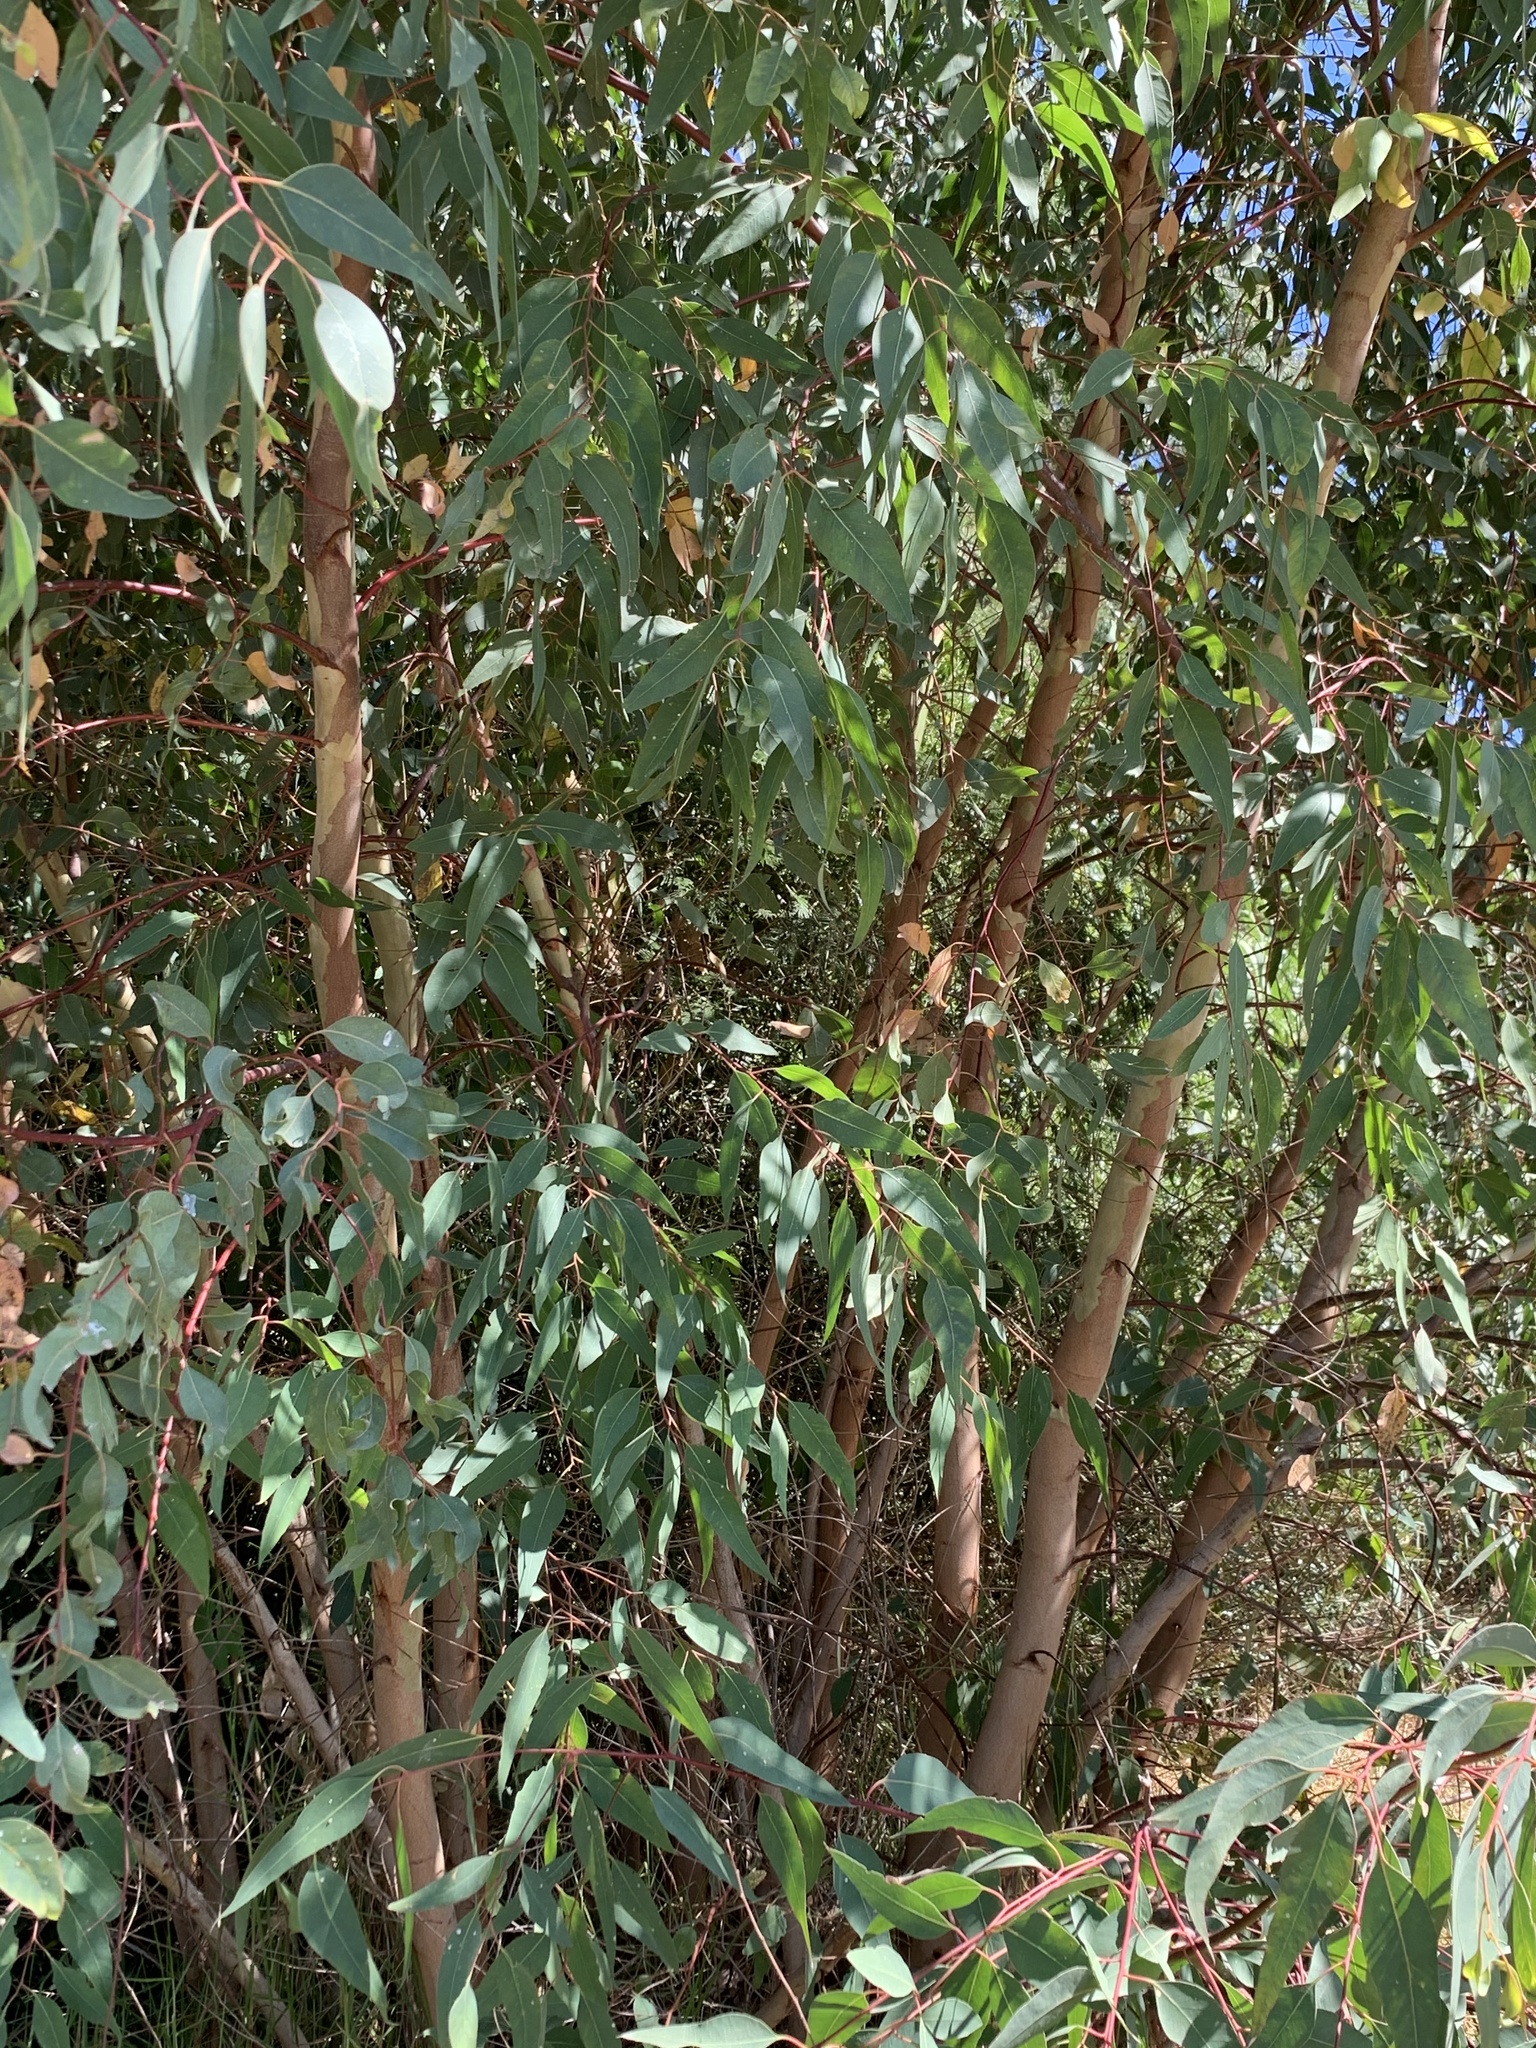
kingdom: Plantae
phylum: Tracheophyta
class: Magnoliopsida
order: Myrtales
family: Myrtaceae
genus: Eucalyptus
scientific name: Eucalyptus camaldulensis
